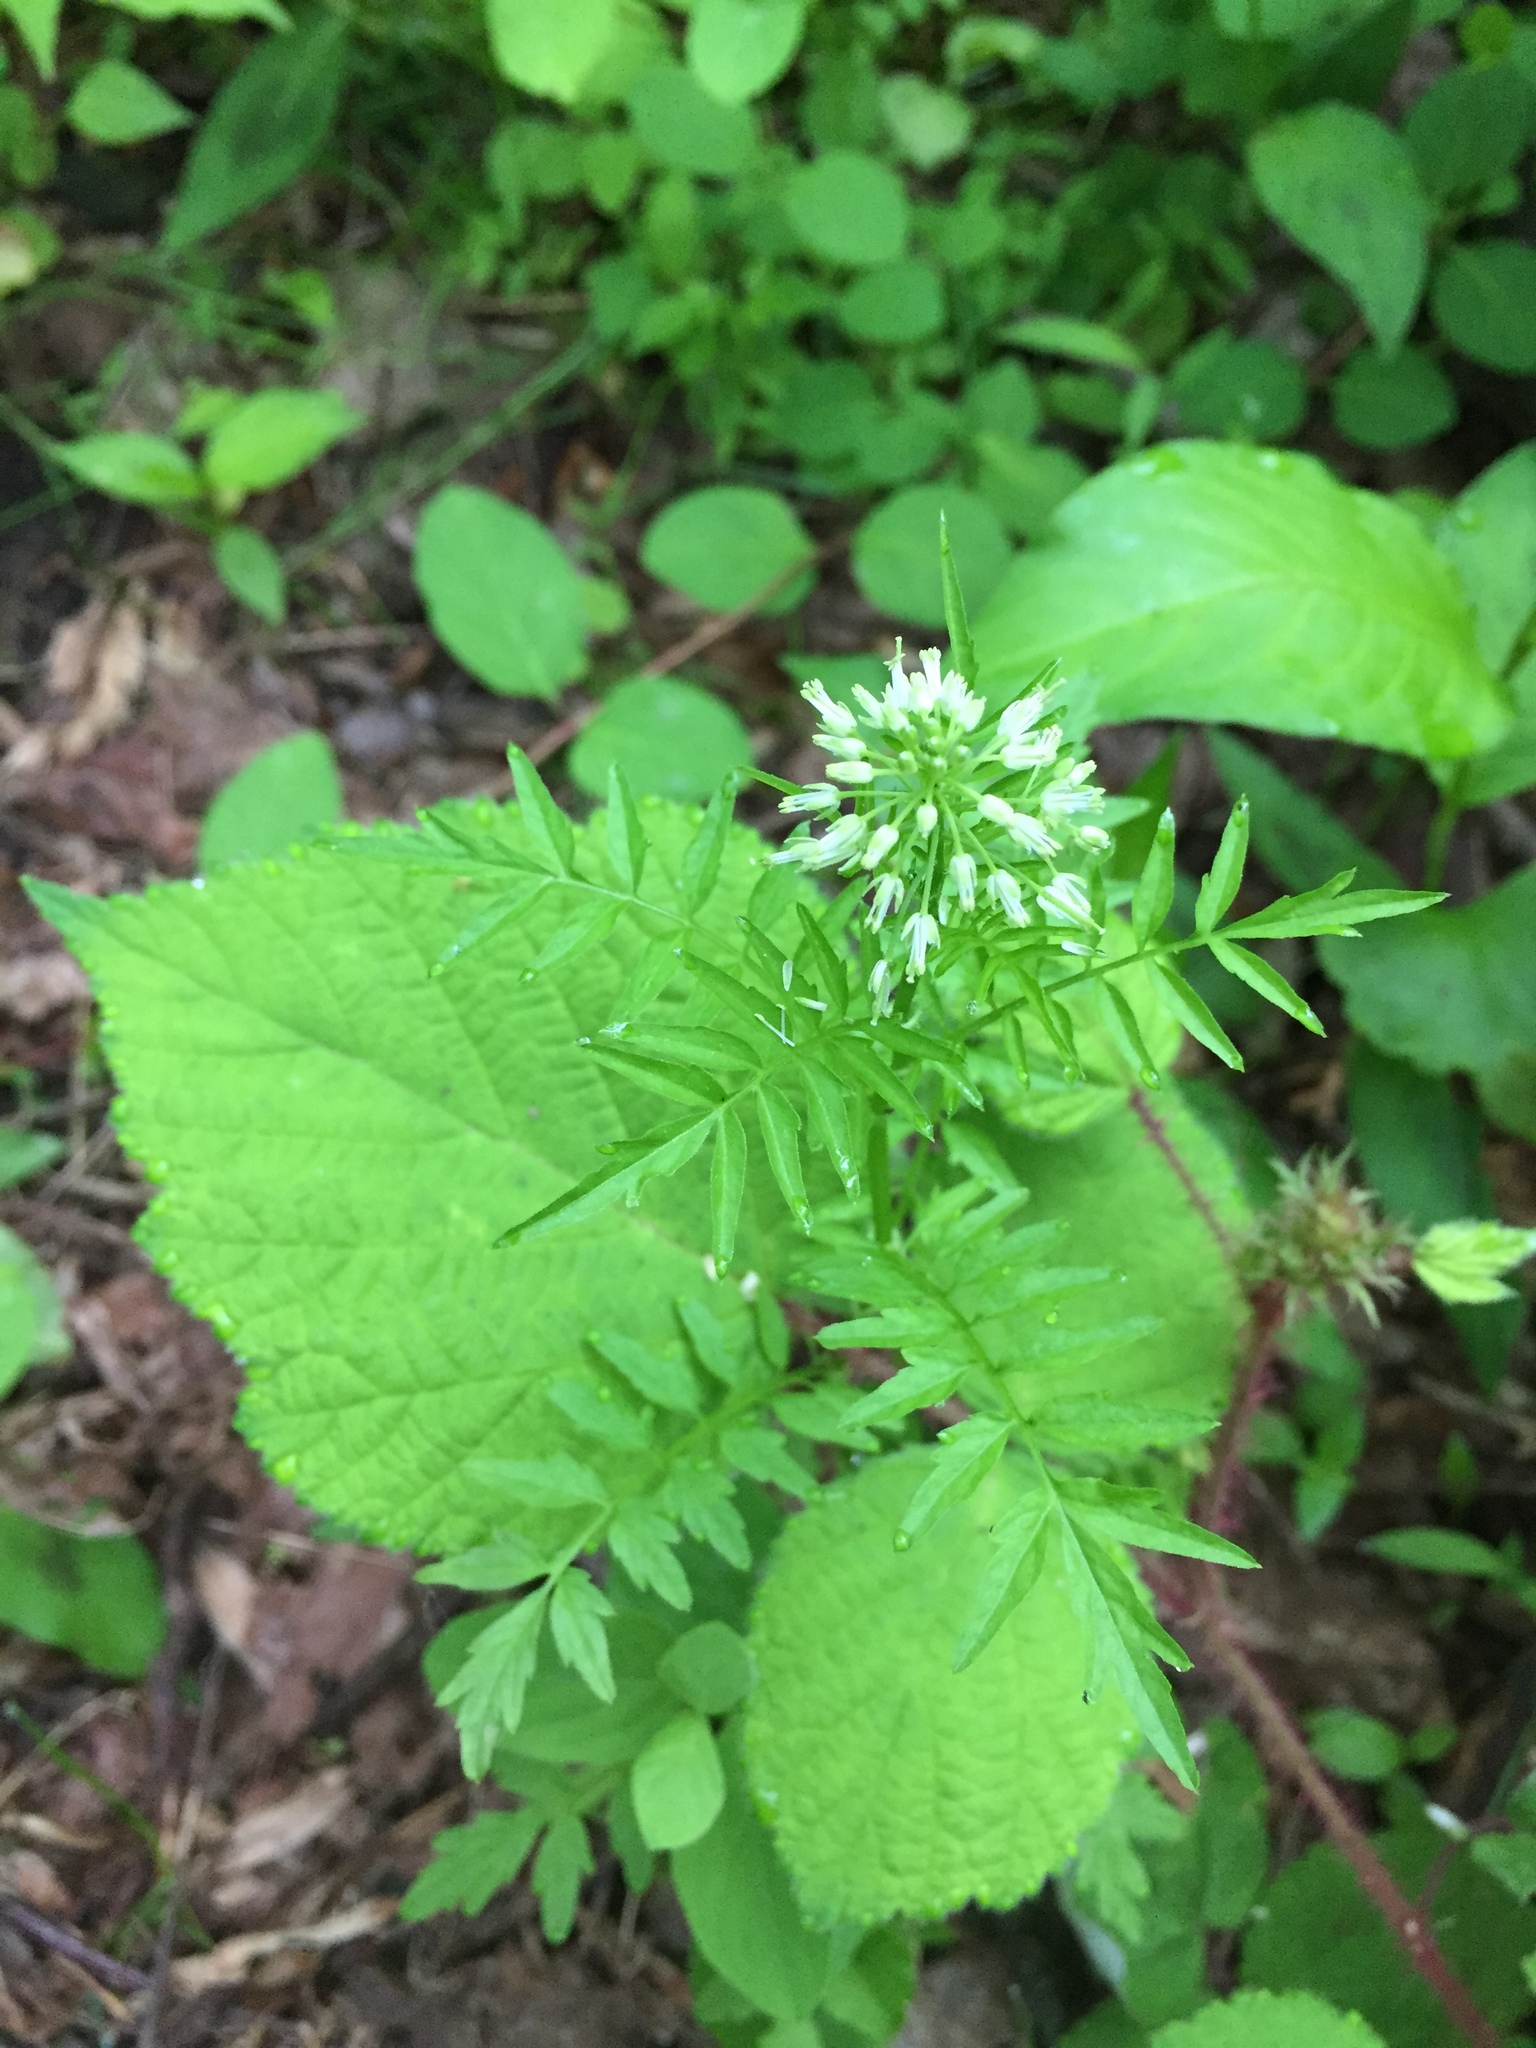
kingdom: Plantae
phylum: Tracheophyta
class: Magnoliopsida
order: Brassicales
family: Brassicaceae
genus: Cardamine
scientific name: Cardamine impatiens
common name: Narrow-leaved bitter-cress
